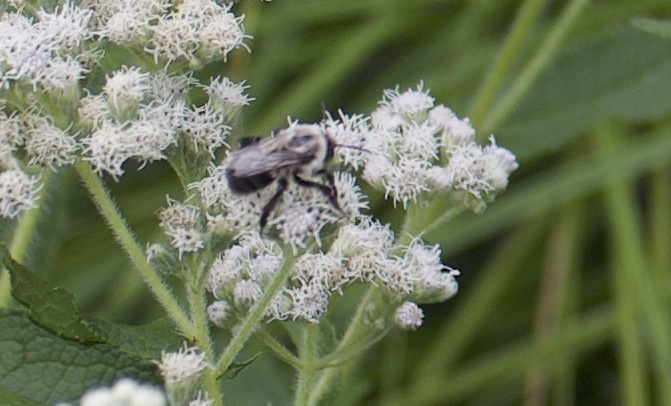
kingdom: Animalia
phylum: Arthropoda
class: Insecta
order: Hymenoptera
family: Apidae
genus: Bombus
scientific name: Bombus impatiens
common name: Common eastern bumble bee
